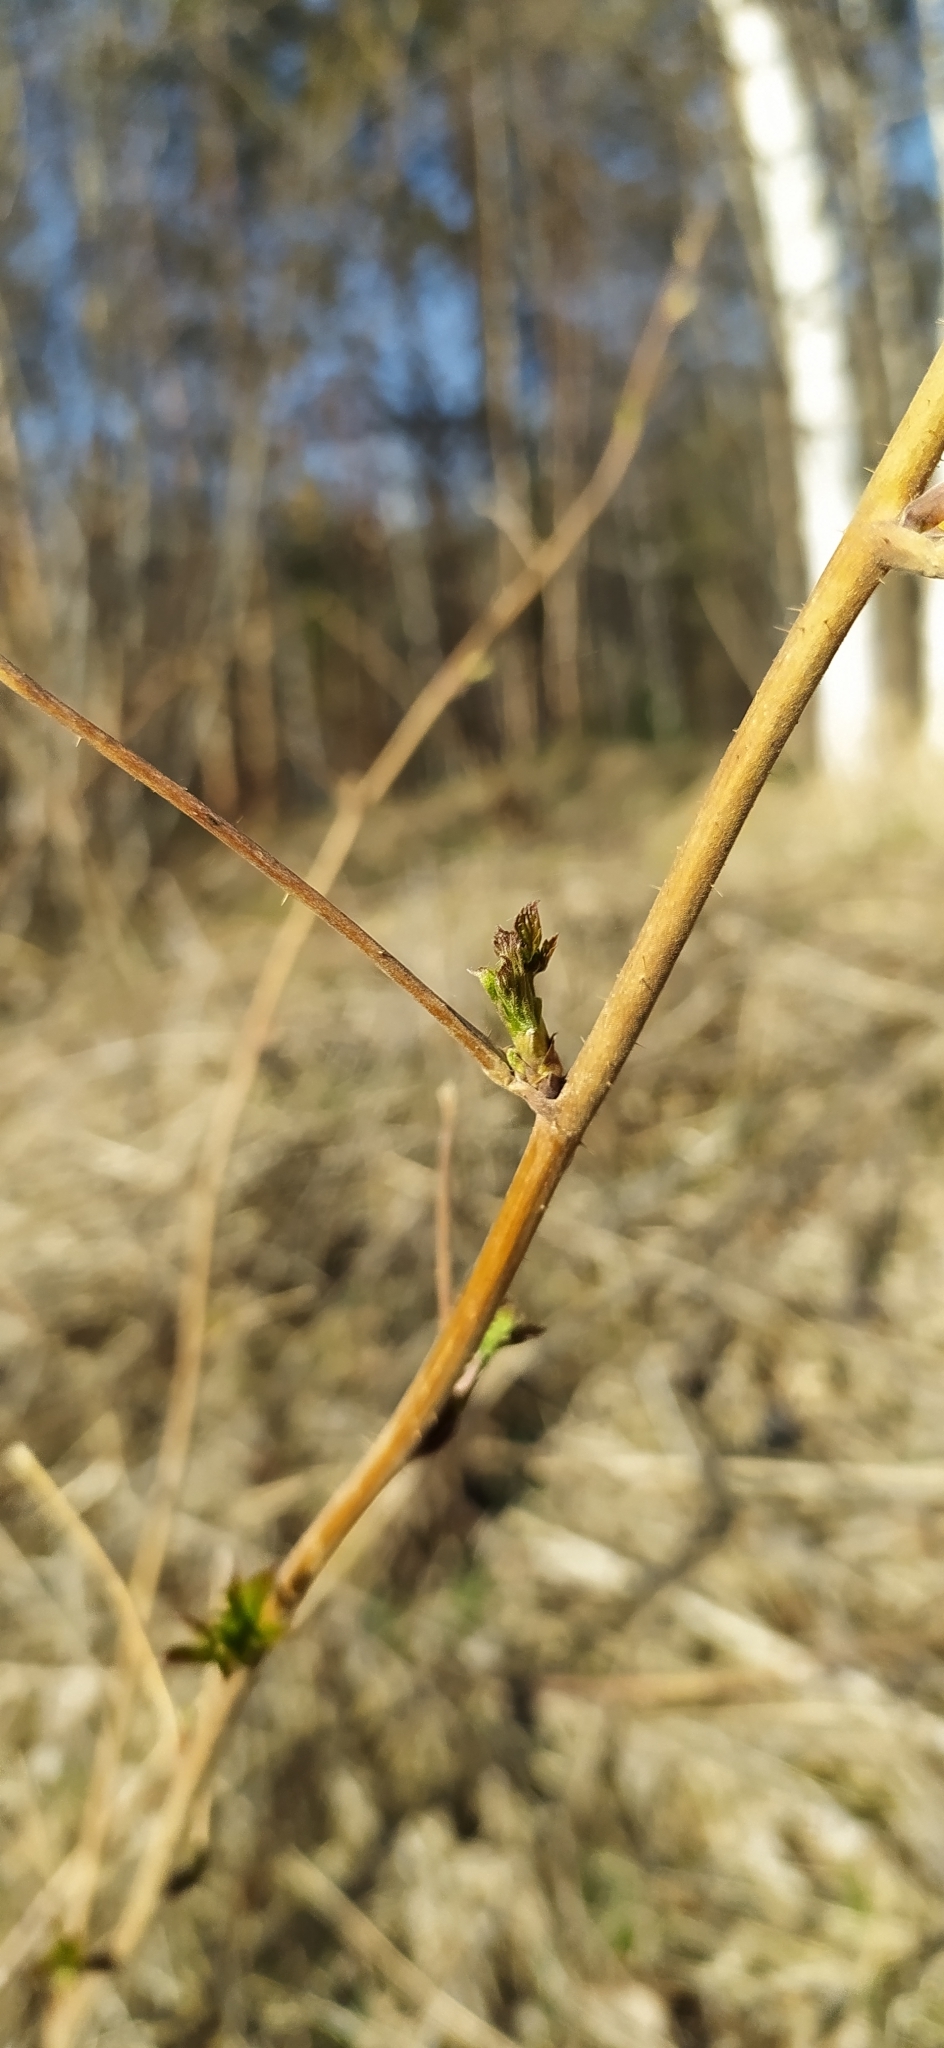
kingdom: Plantae
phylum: Tracheophyta
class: Magnoliopsida
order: Rosales
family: Rosaceae
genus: Rubus
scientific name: Rubus idaeus
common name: Raspberry
